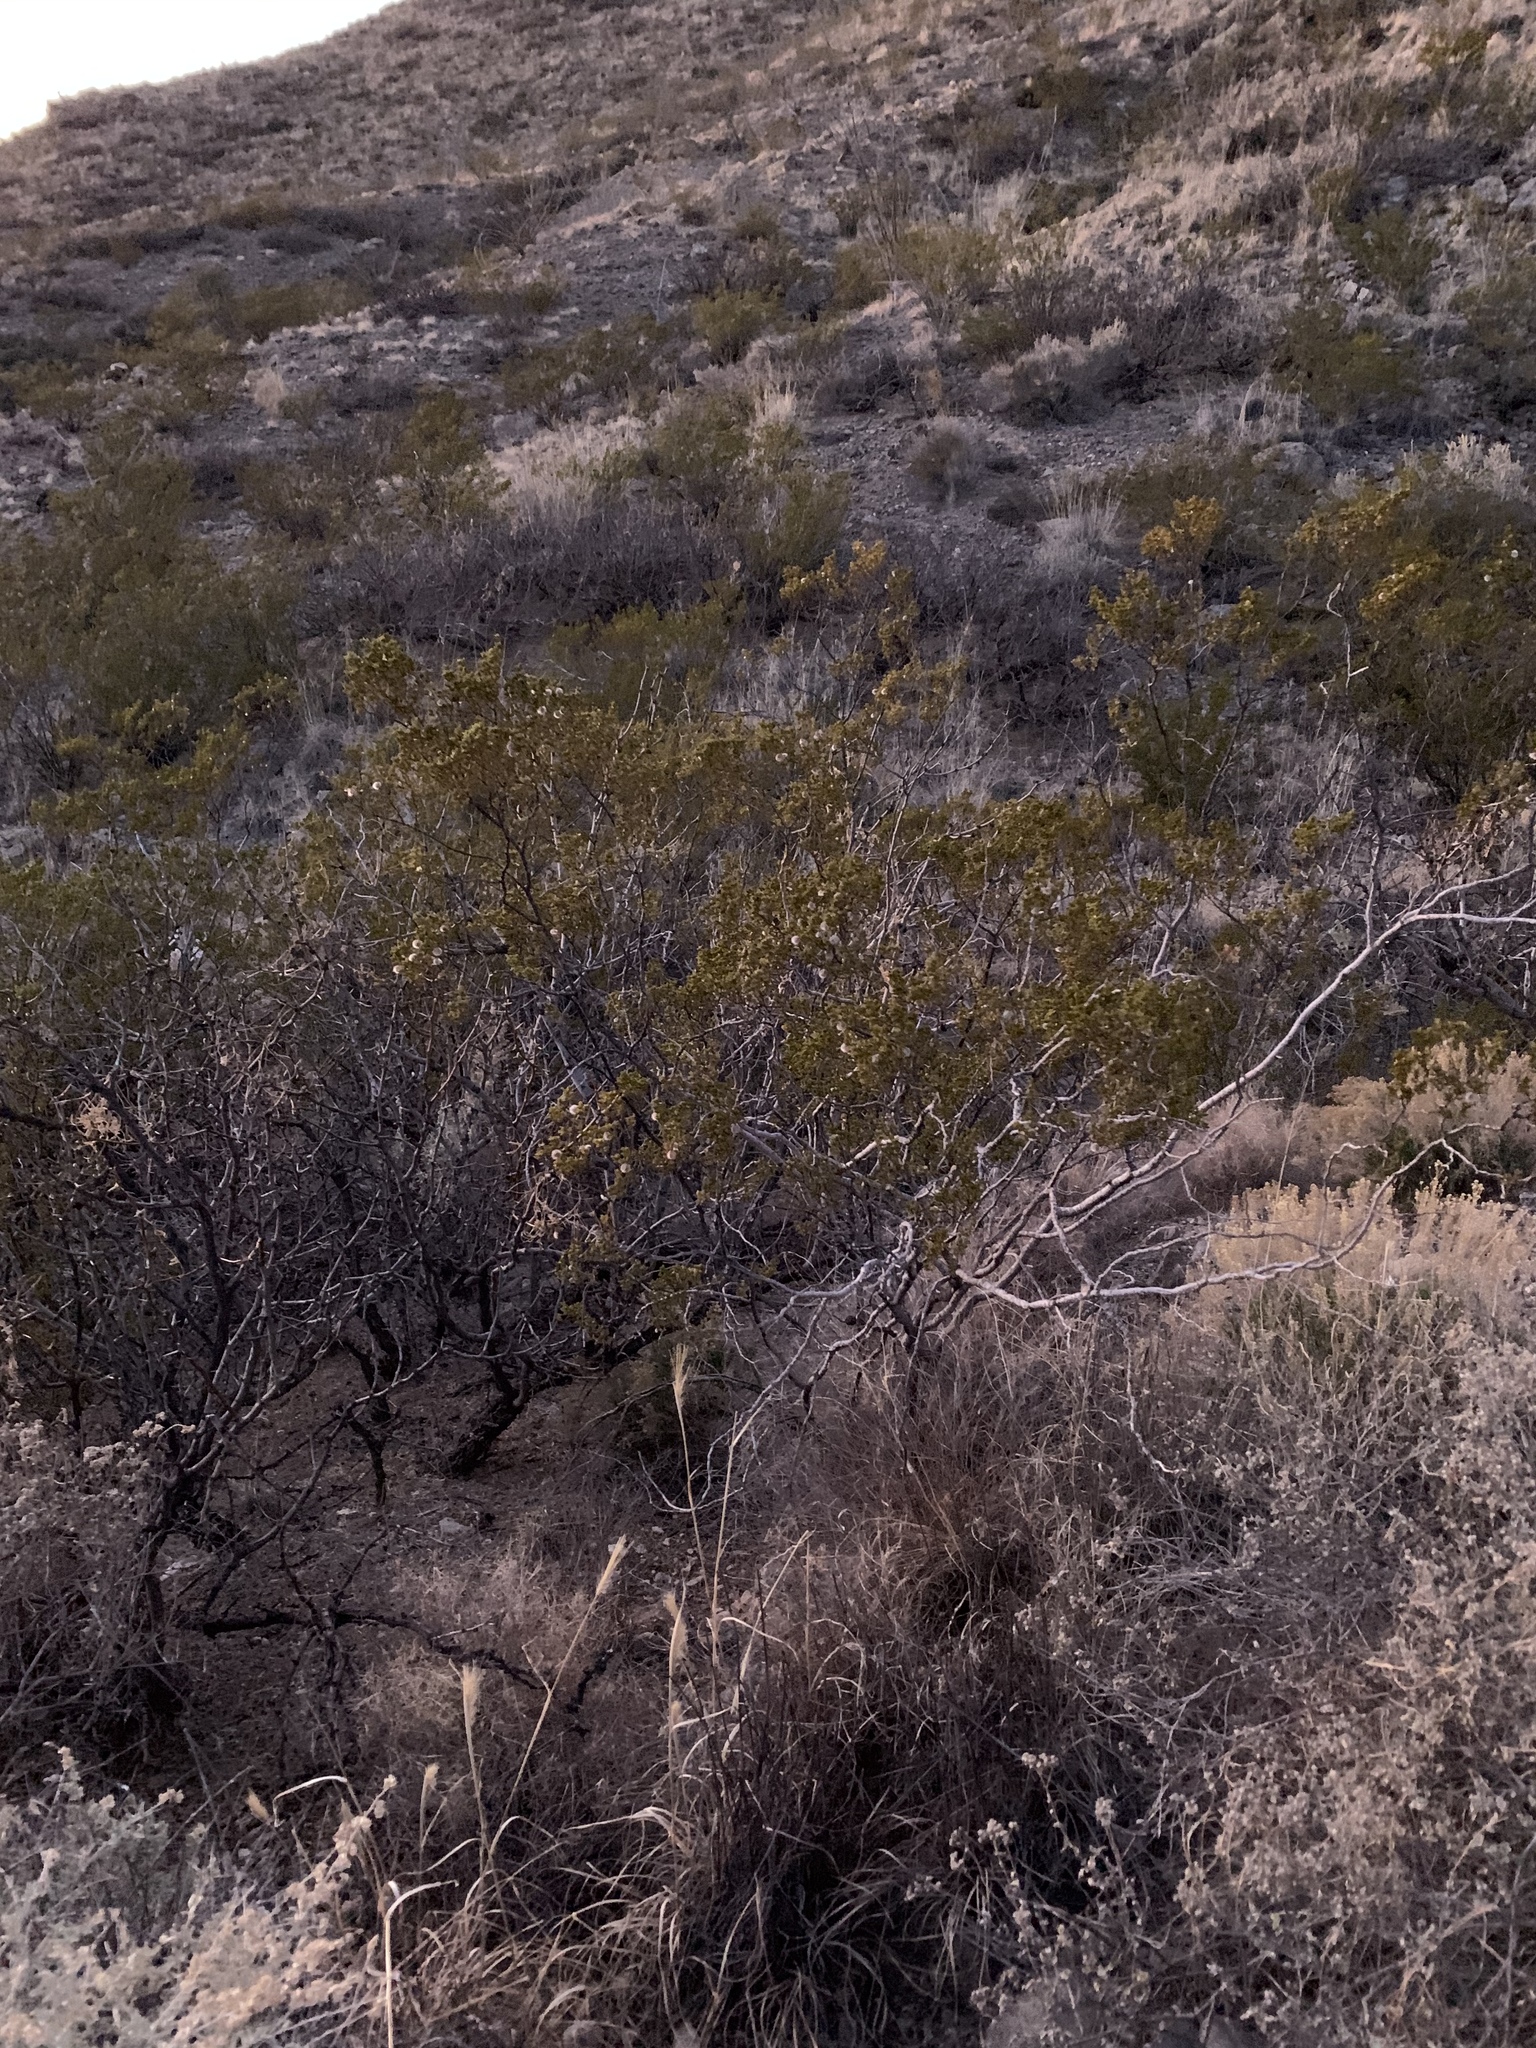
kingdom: Plantae
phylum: Tracheophyta
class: Magnoliopsida
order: Zygophyllales
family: Zygophyllaceae
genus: Larrea
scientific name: Larrea tridentata
